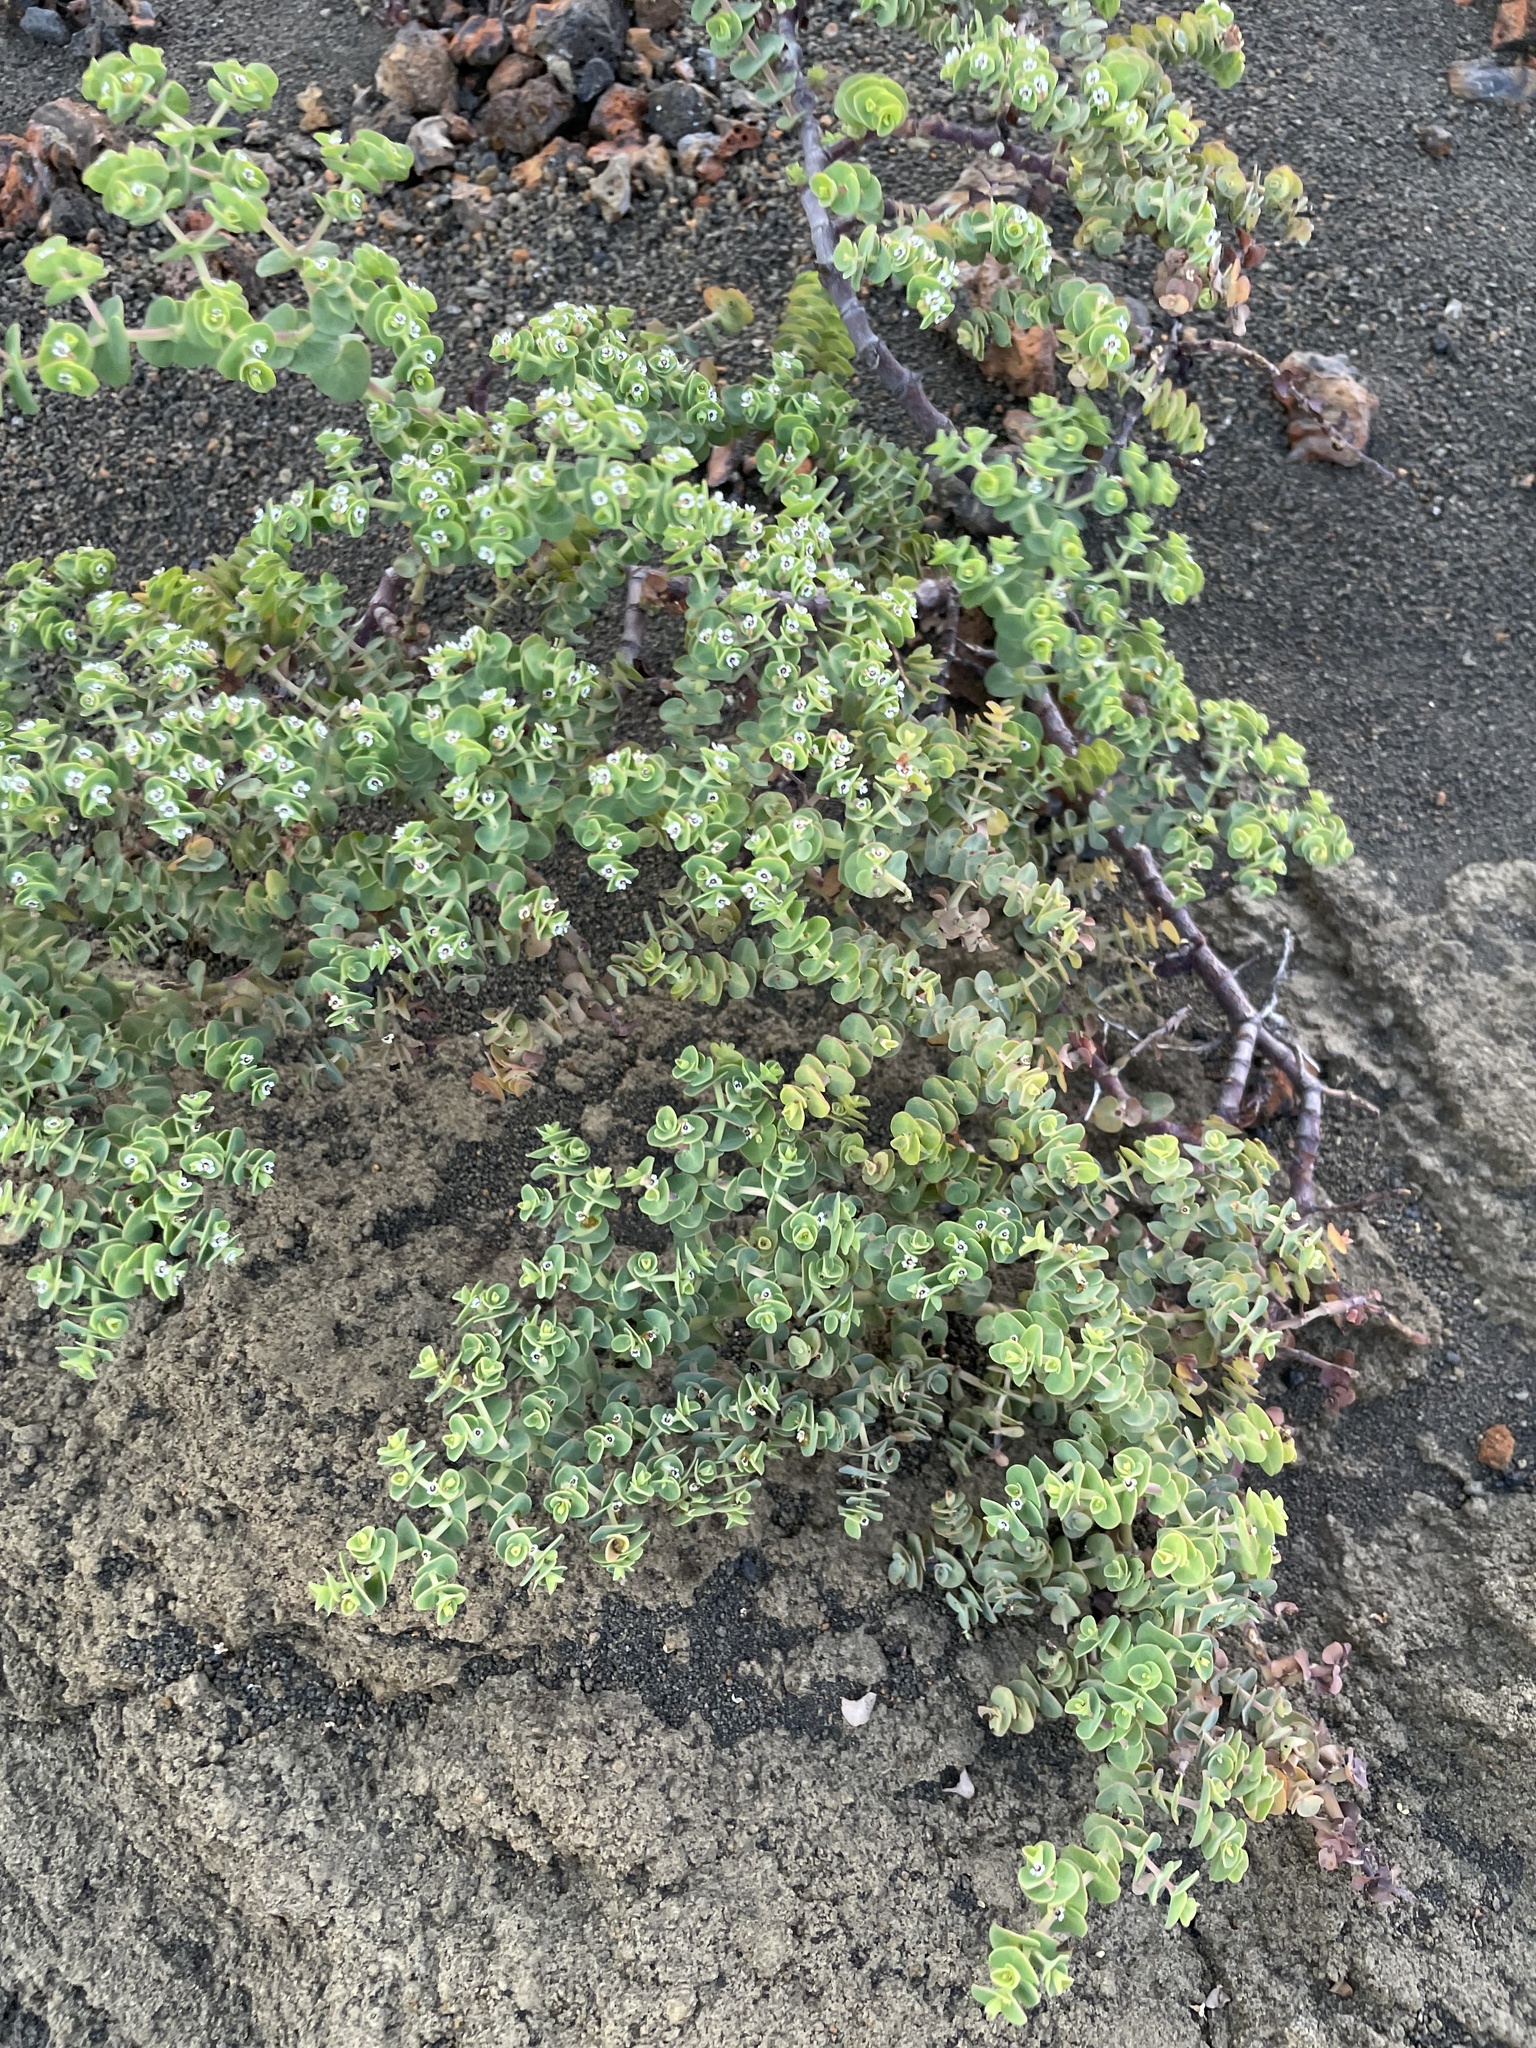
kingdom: Plantae
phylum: Tracheophyta
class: Magnoliopsida
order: Malpighiales
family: Euphorbiaceae
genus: Euphorbia
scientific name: Euphorbia amplexicaulis
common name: Chamaesyce
